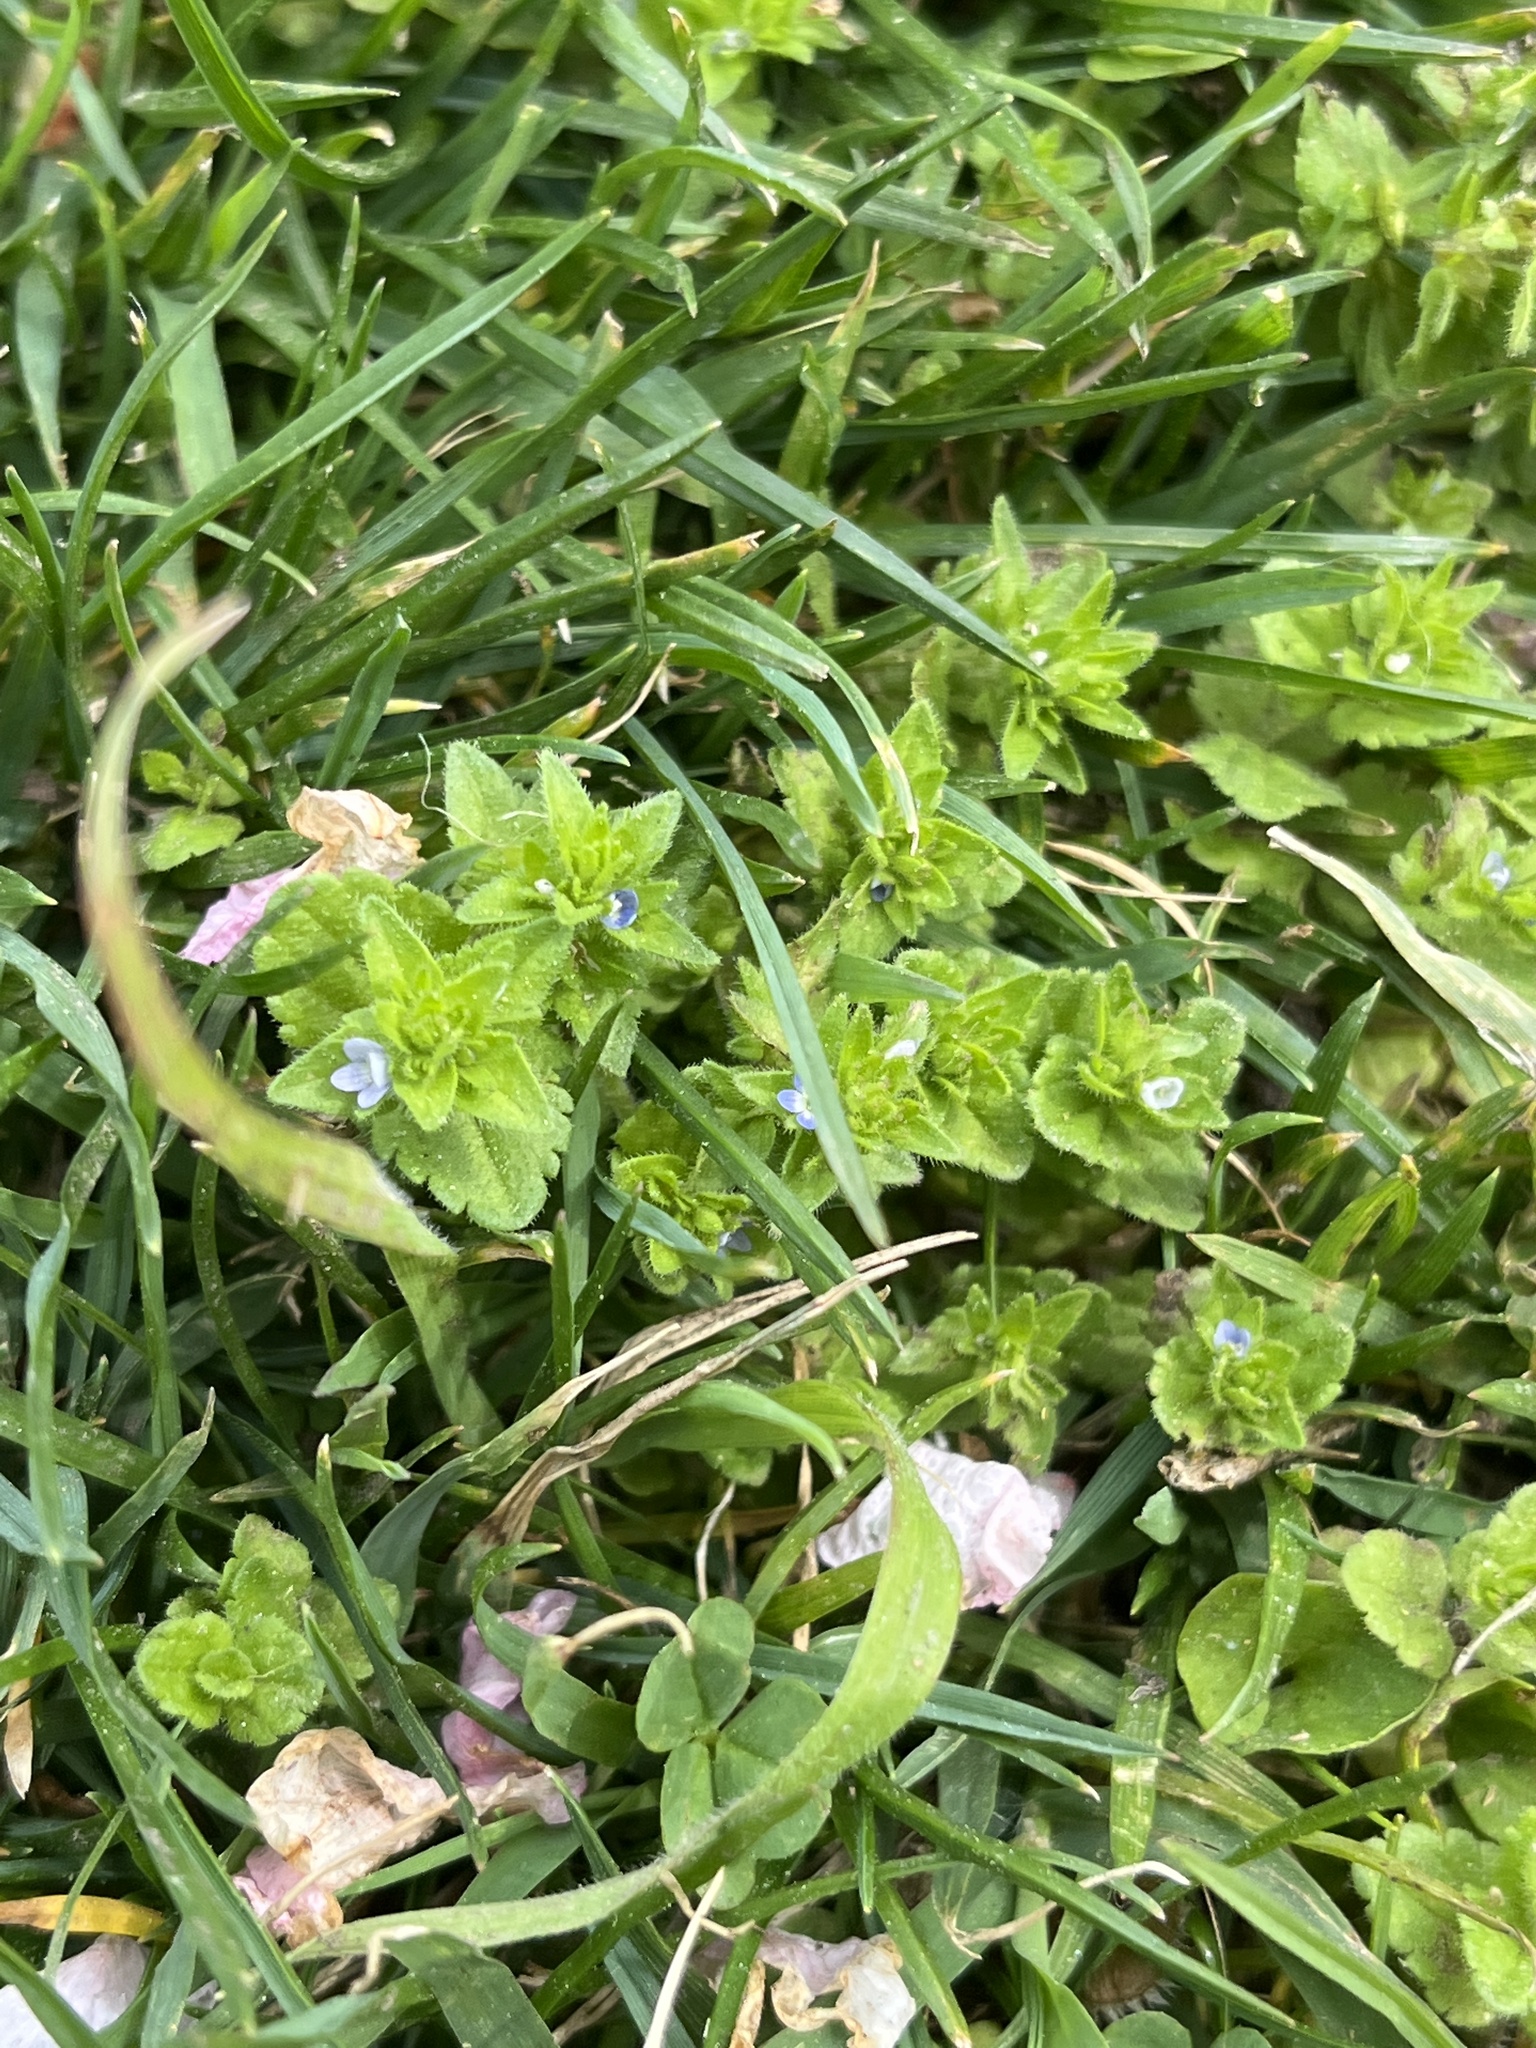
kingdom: Plantae
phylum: Tracheophyta
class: Magnoliopsida
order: Lamiales
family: Plantaginaceae
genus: Veronica
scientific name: Veronica arvensis
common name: Corn speedwell
